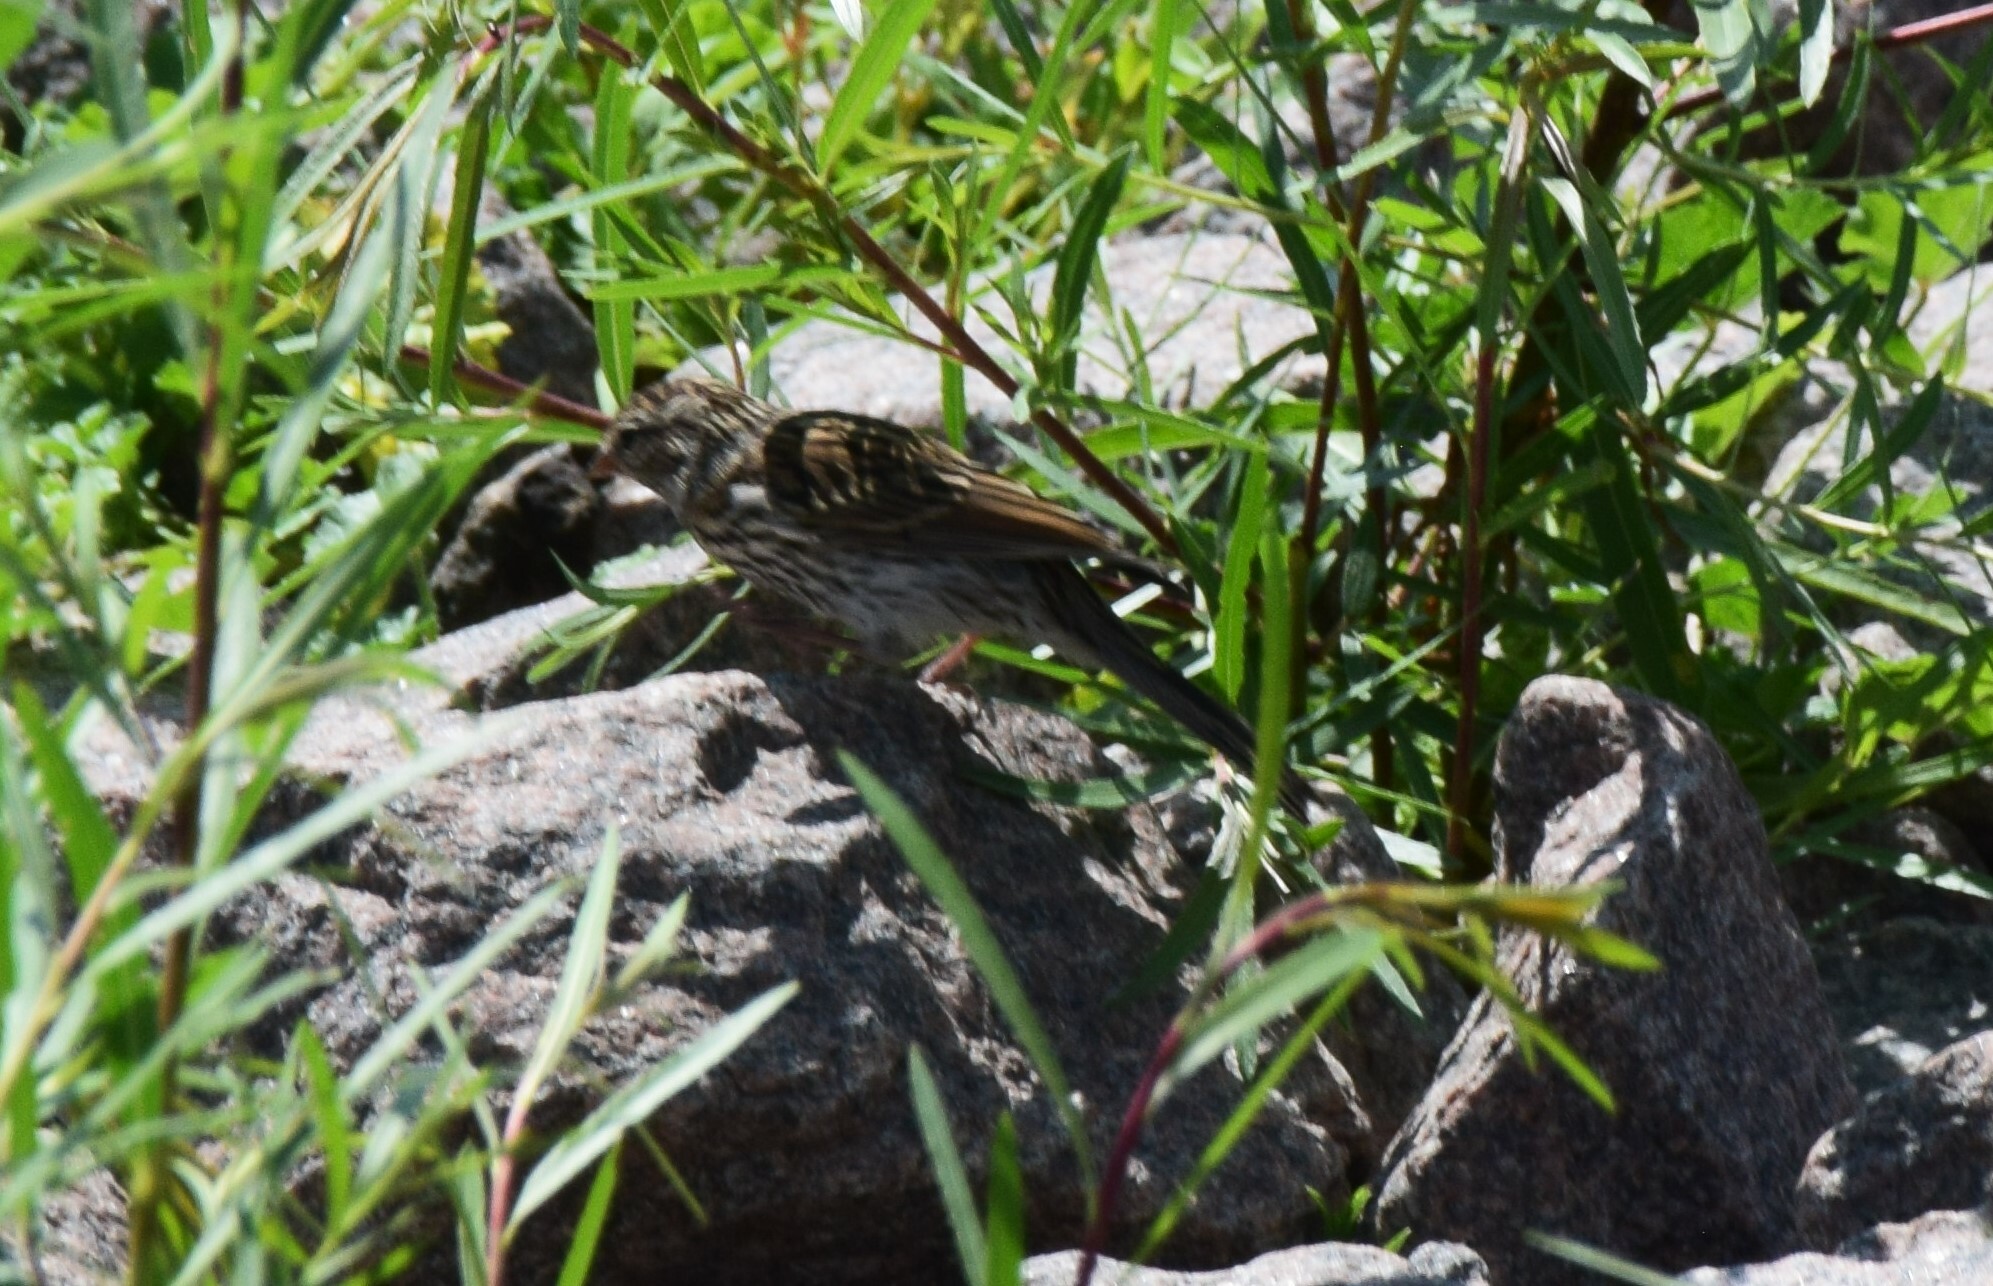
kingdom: Animalia
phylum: Chordata
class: Aves
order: Passeriformes
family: Fringillidae
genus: Haemorhous
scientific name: Haemorhous mexicanus
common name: House finch
